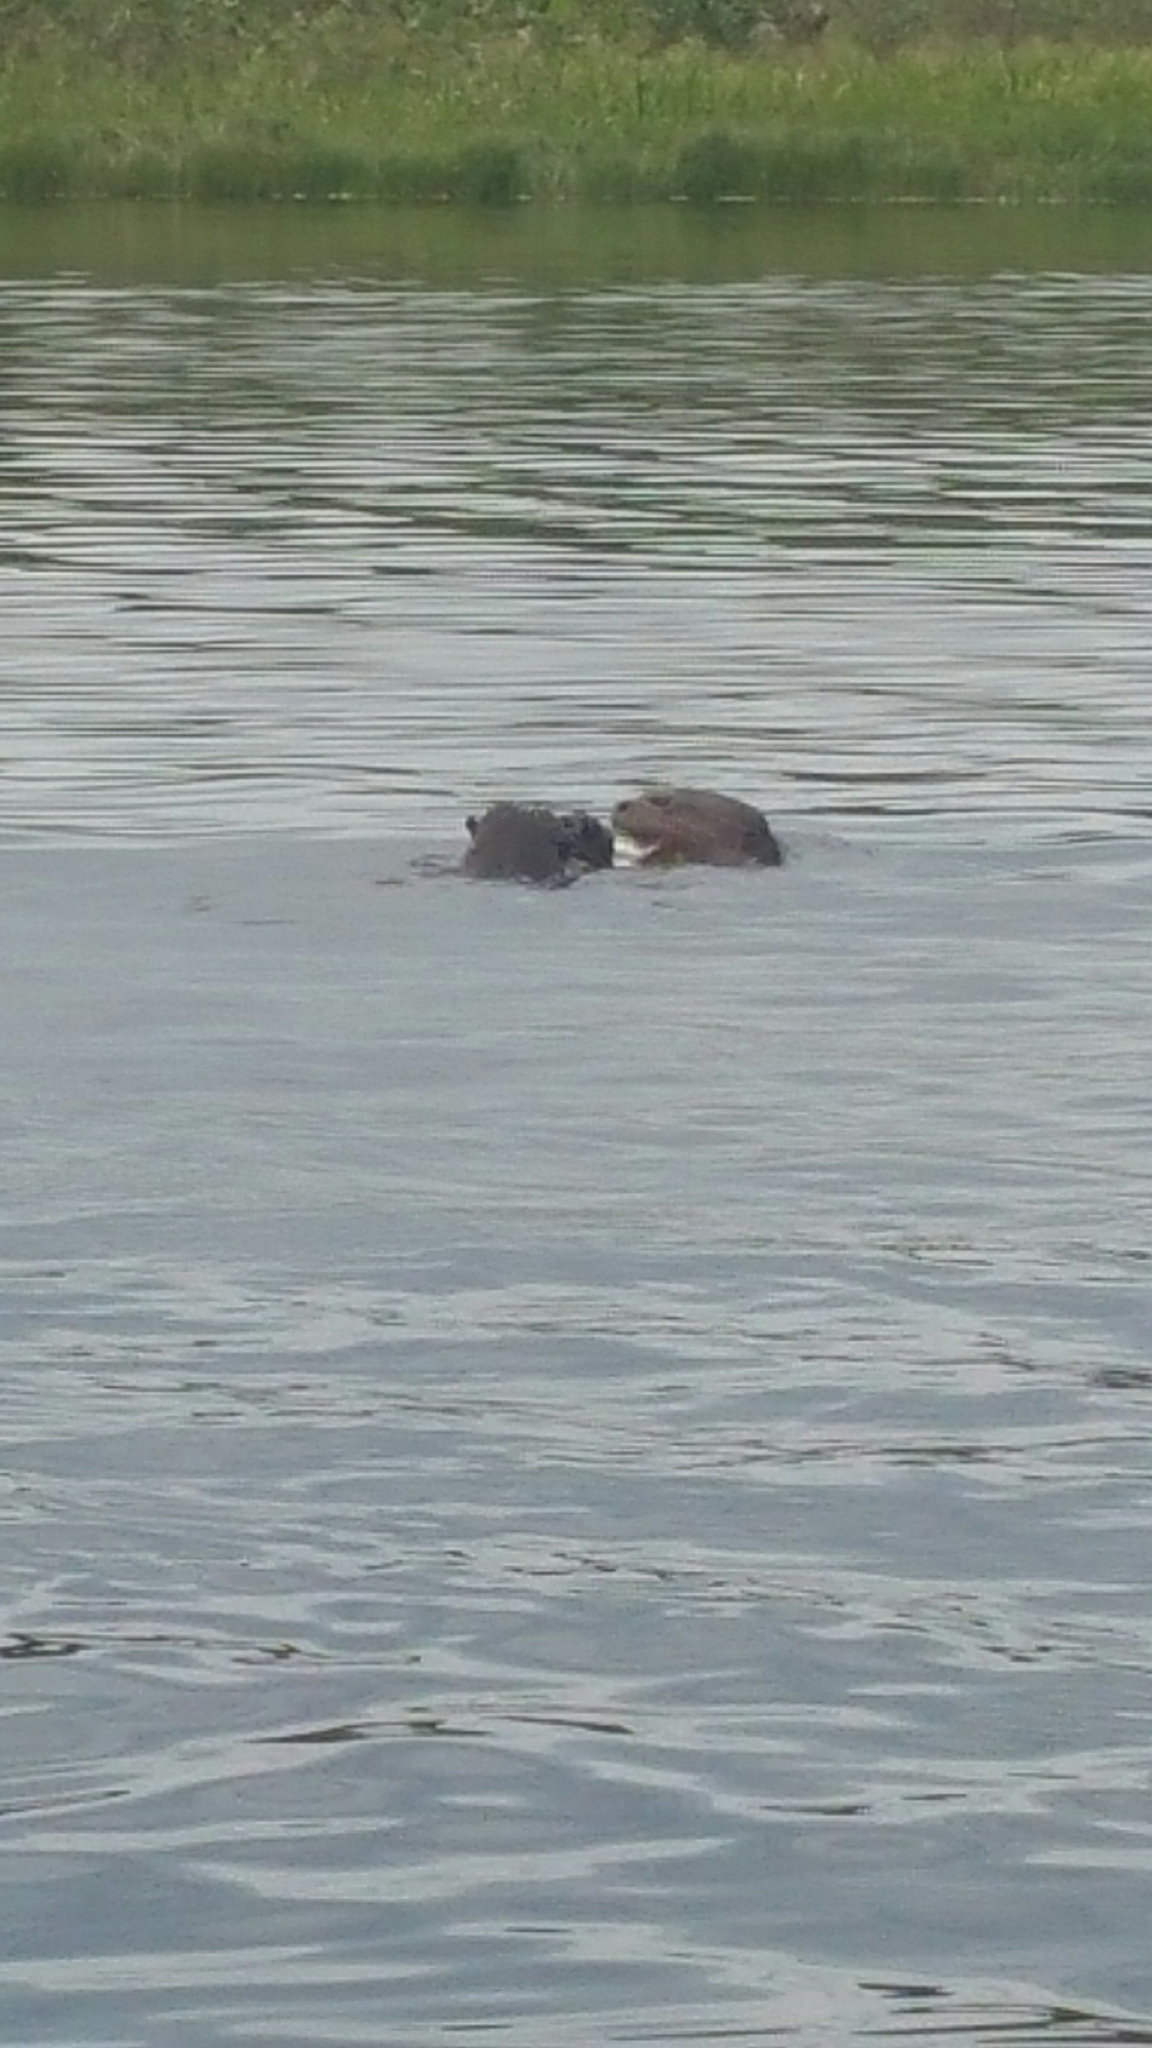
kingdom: Animalia
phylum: Chordata
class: Mammalia
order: Carnivora
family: Mustelidae
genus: Pteronura
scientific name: Pteronura brasiliensis
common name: Giant otter
